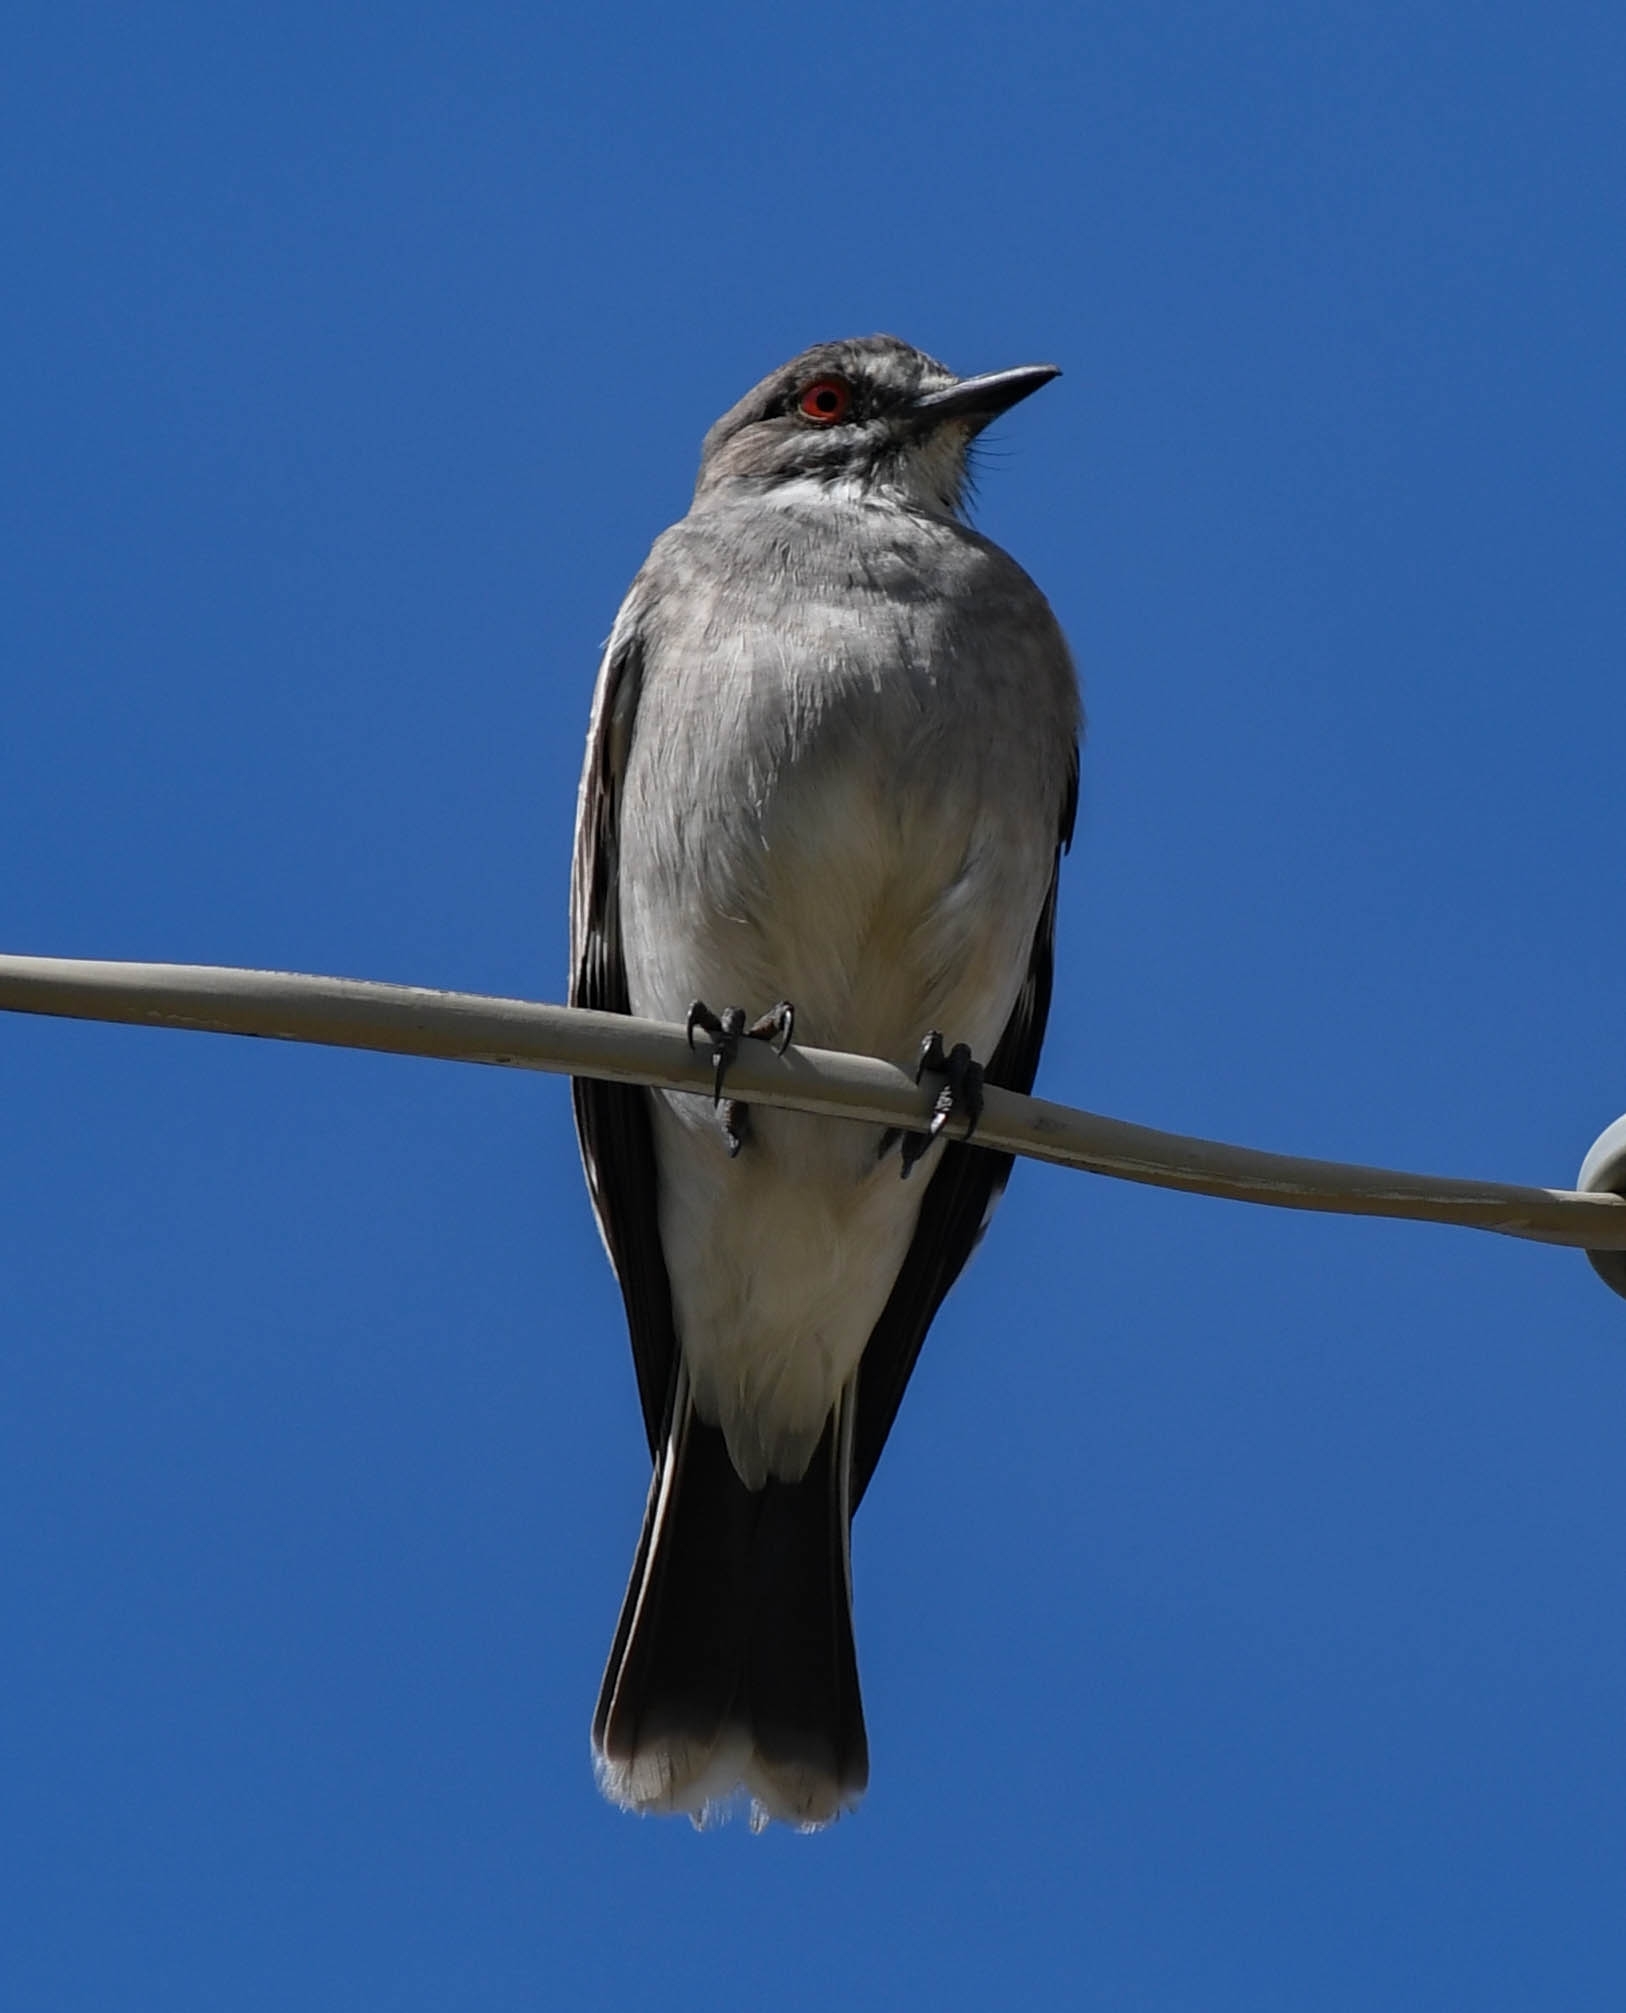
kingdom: Animalia
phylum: Chordata
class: Aves
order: Passeriformes
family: Tyrannidae
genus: Xolmis
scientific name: Xolmis cinereus
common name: Grey monjita
